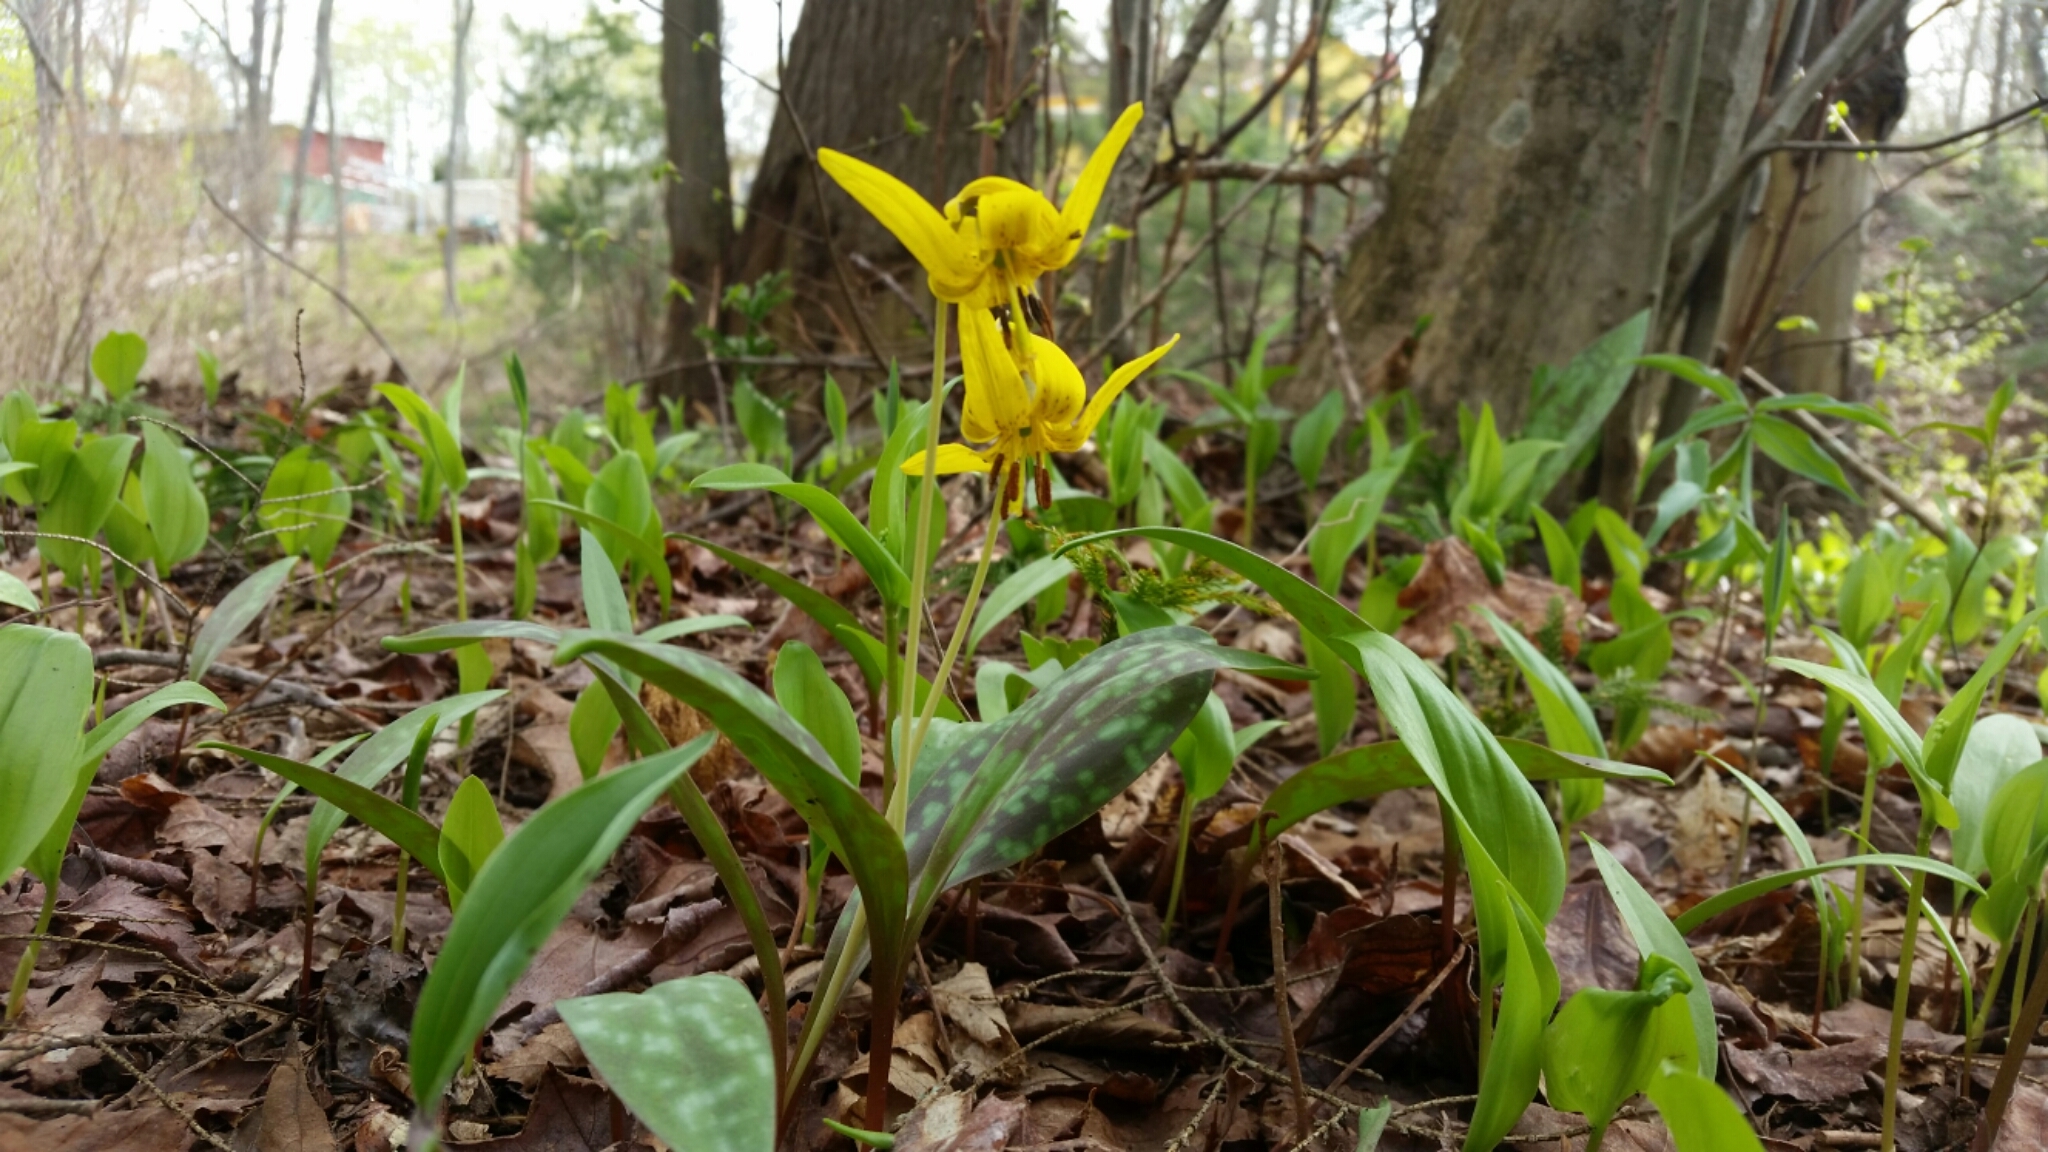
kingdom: Plantae
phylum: Tracheophyta
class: Liliopsida
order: Liliales
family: Liliaceae
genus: Erythronium
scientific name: Erythronium americanum
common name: Yellow adder's-tongue
